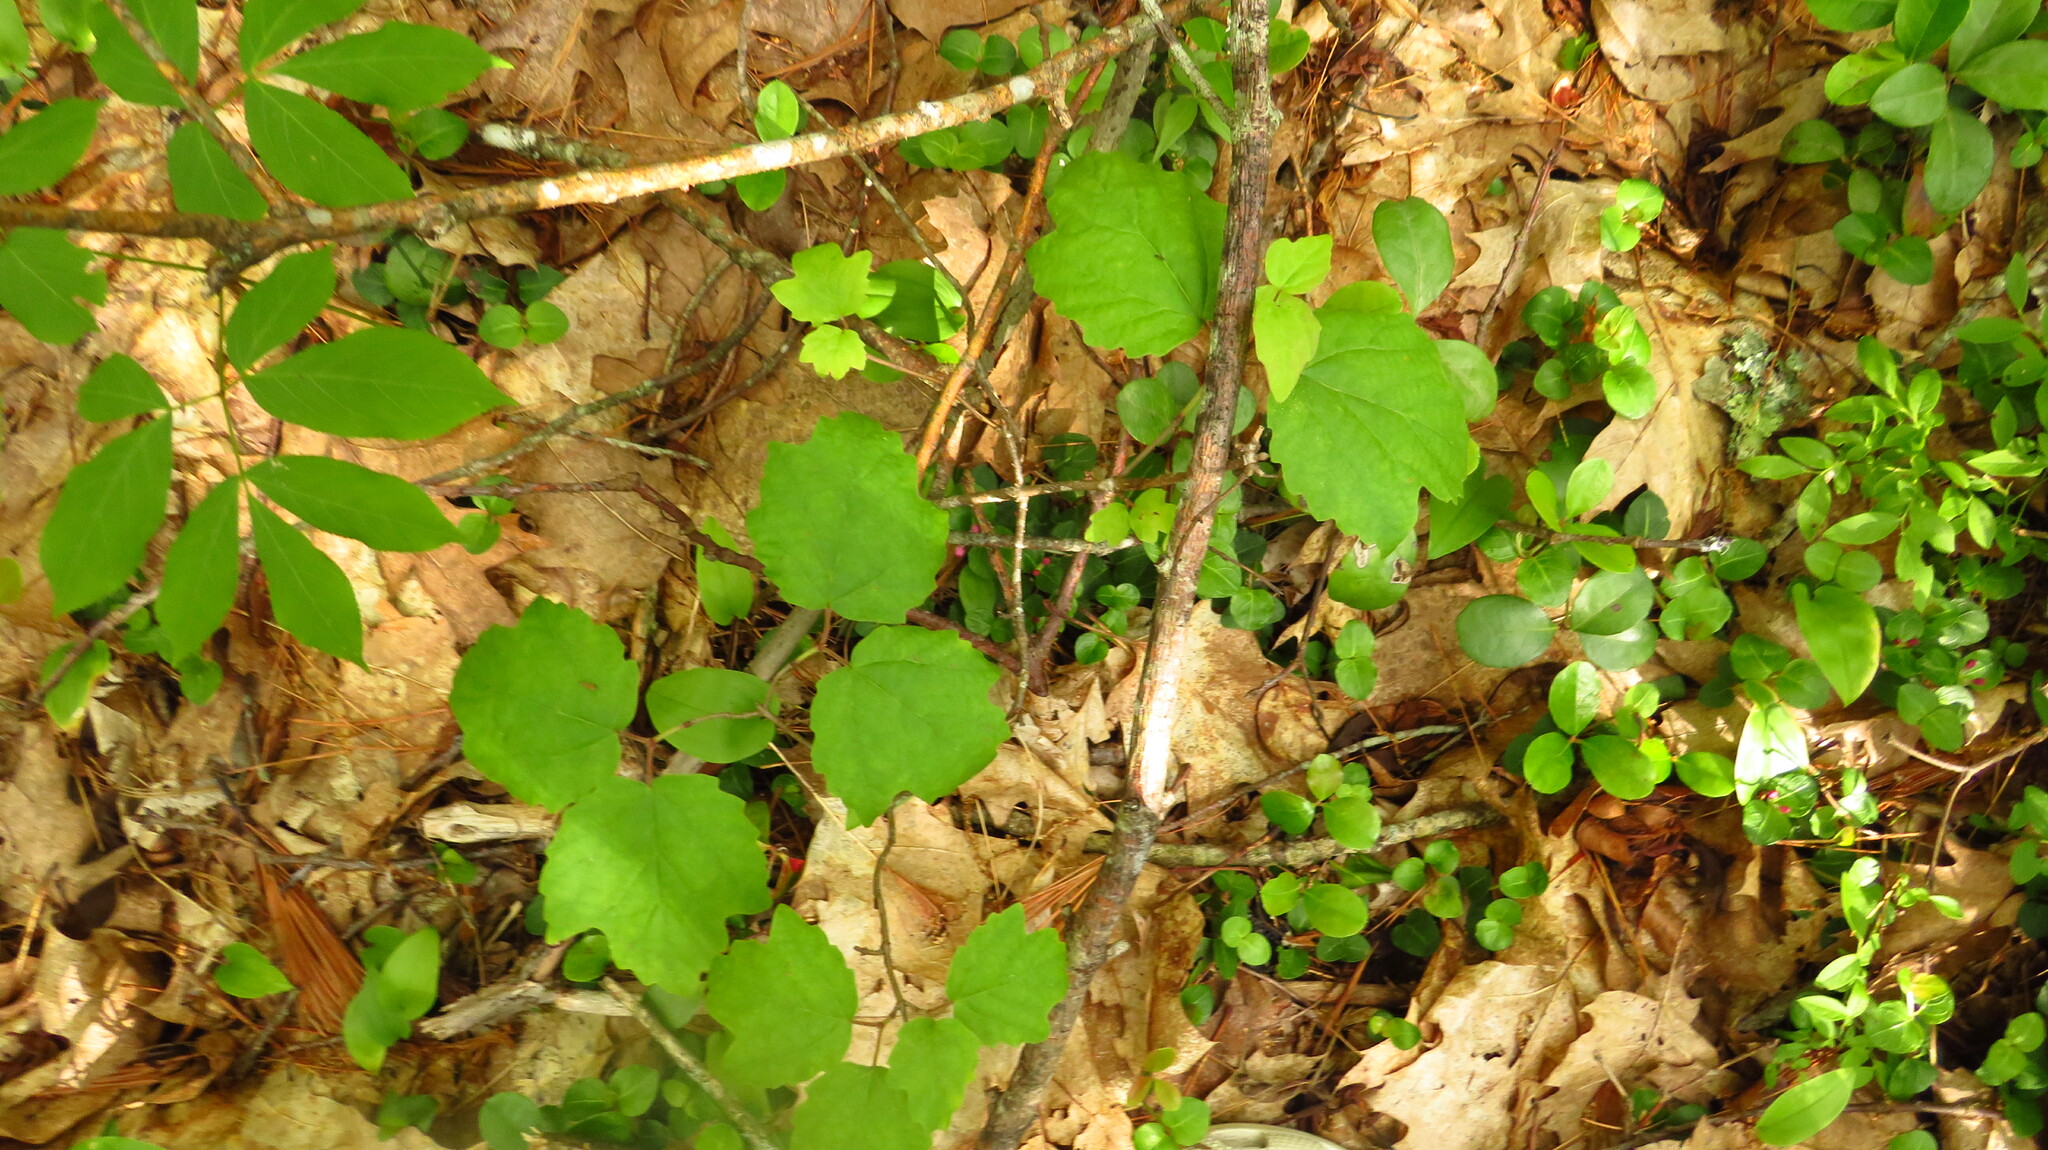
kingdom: Plantae
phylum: Tracheophyta
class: Magnoliopsida
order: Dipsacales
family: Viburnaceae
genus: Viburnum
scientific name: Viburnum acerifolium
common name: Dockmackie
